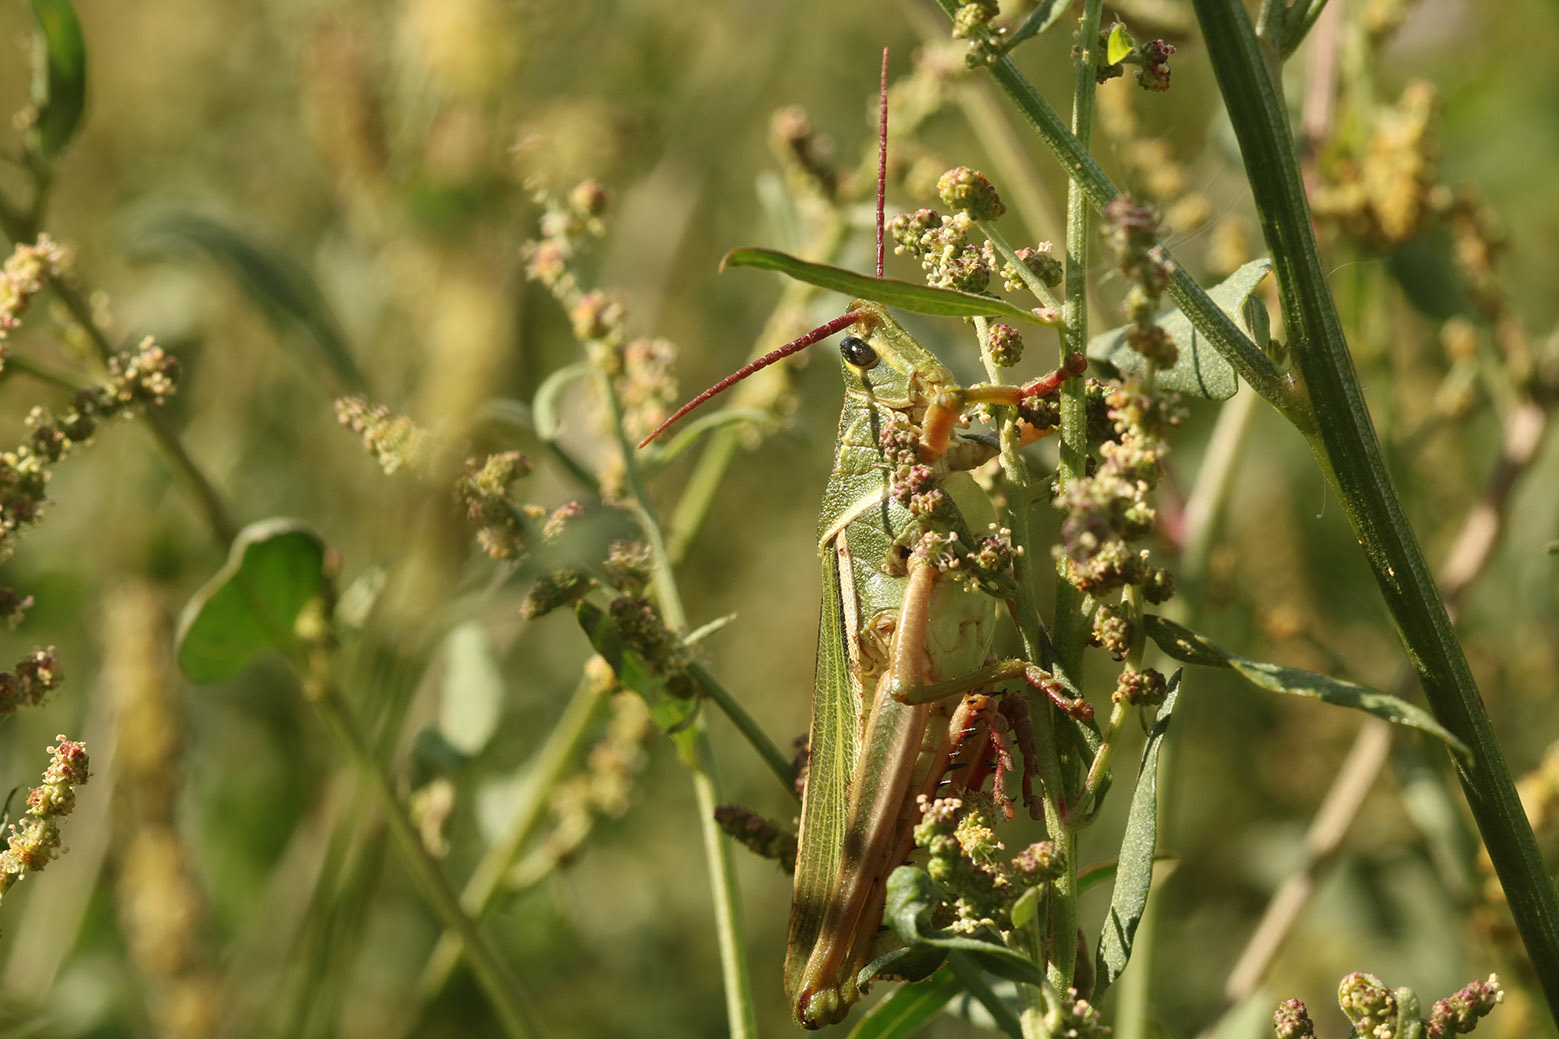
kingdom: Animalia
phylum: Arthropoda
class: Insecta
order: Orthoptera
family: Romaleidae
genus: Staleochlora
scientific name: Staleochlora viridicata
